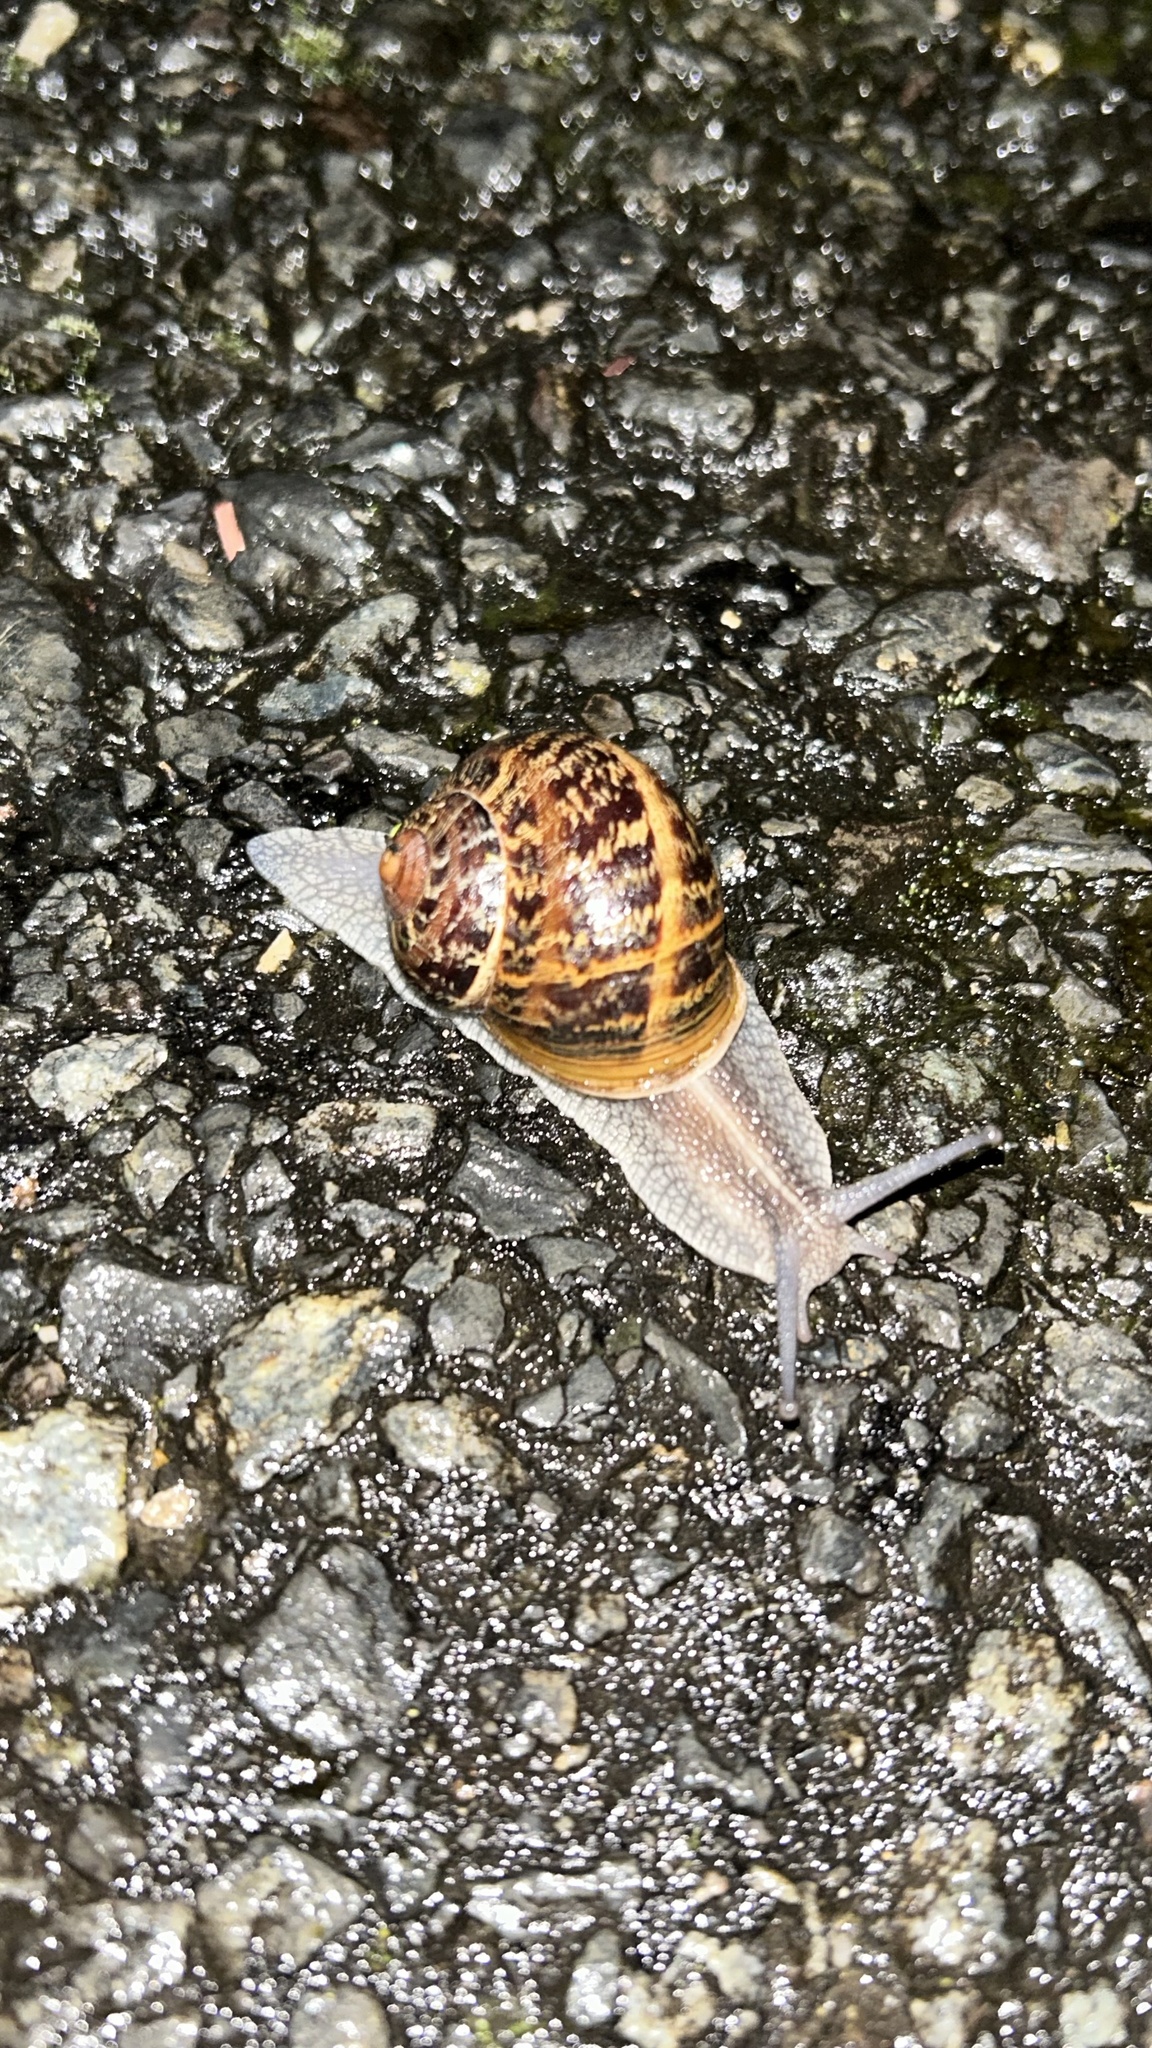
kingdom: Animalia
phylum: Mollusca
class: Gastropoda
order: Stylommatophora
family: Helicidae
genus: Cornu
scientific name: Cornu aspersum
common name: Brown garden snail
